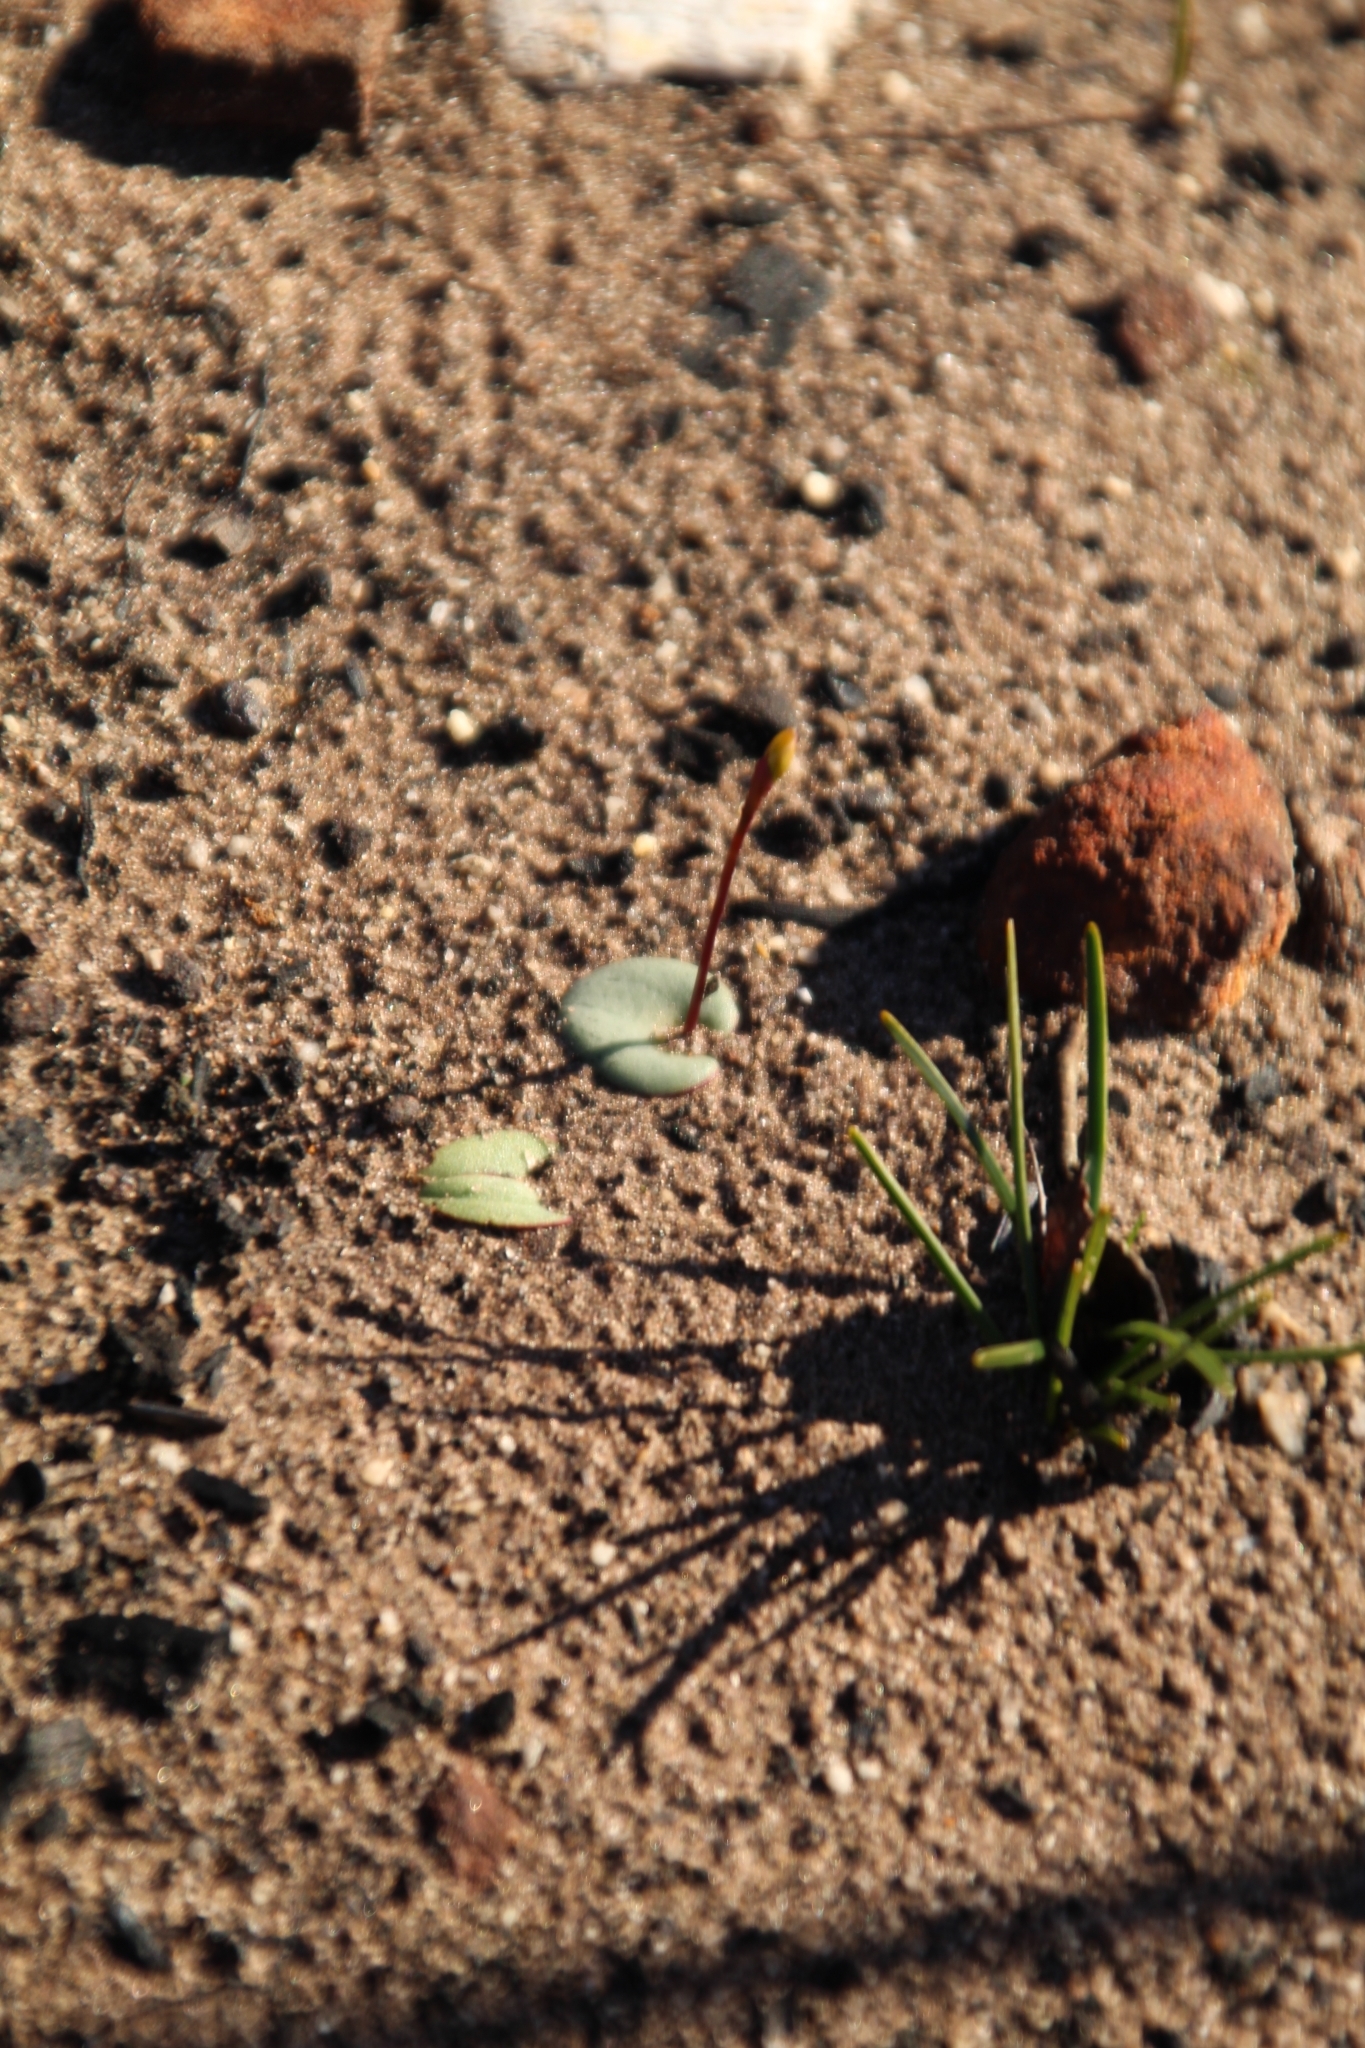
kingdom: Plantae
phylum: Tracheophyta
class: Liliopsida
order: Asparagales
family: Orchidaceae
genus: Drakaea
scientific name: Drakaea livida
